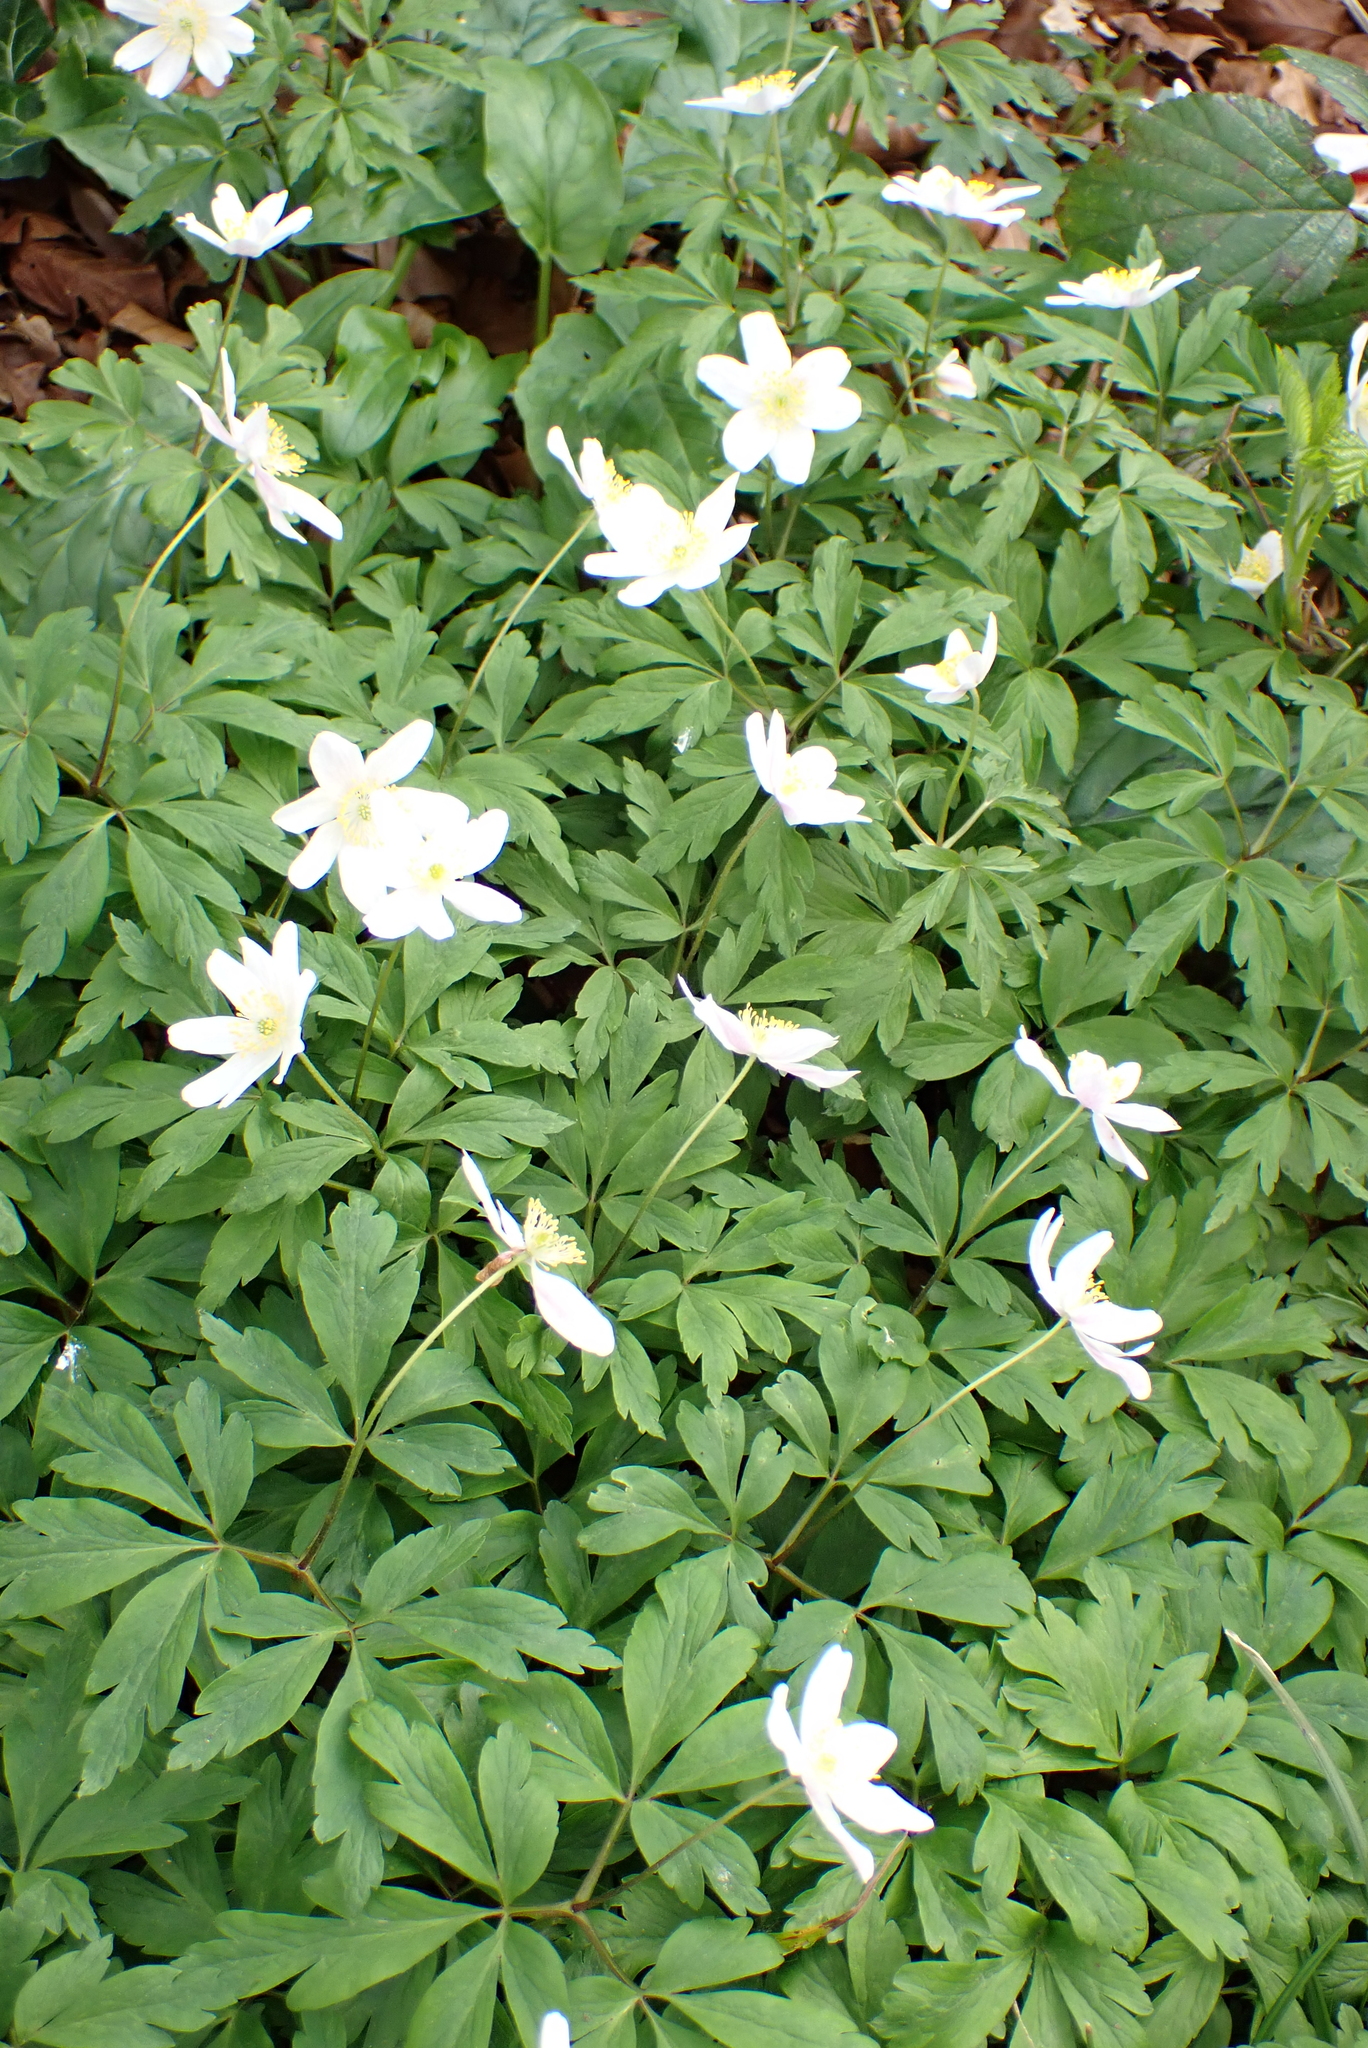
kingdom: Plantae
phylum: Tracheophyta
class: Magnoliopsida
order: Ranunculales
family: Ranunculaceae
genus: Anemone
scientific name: Anemone nemorosa
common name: Wood anemone
